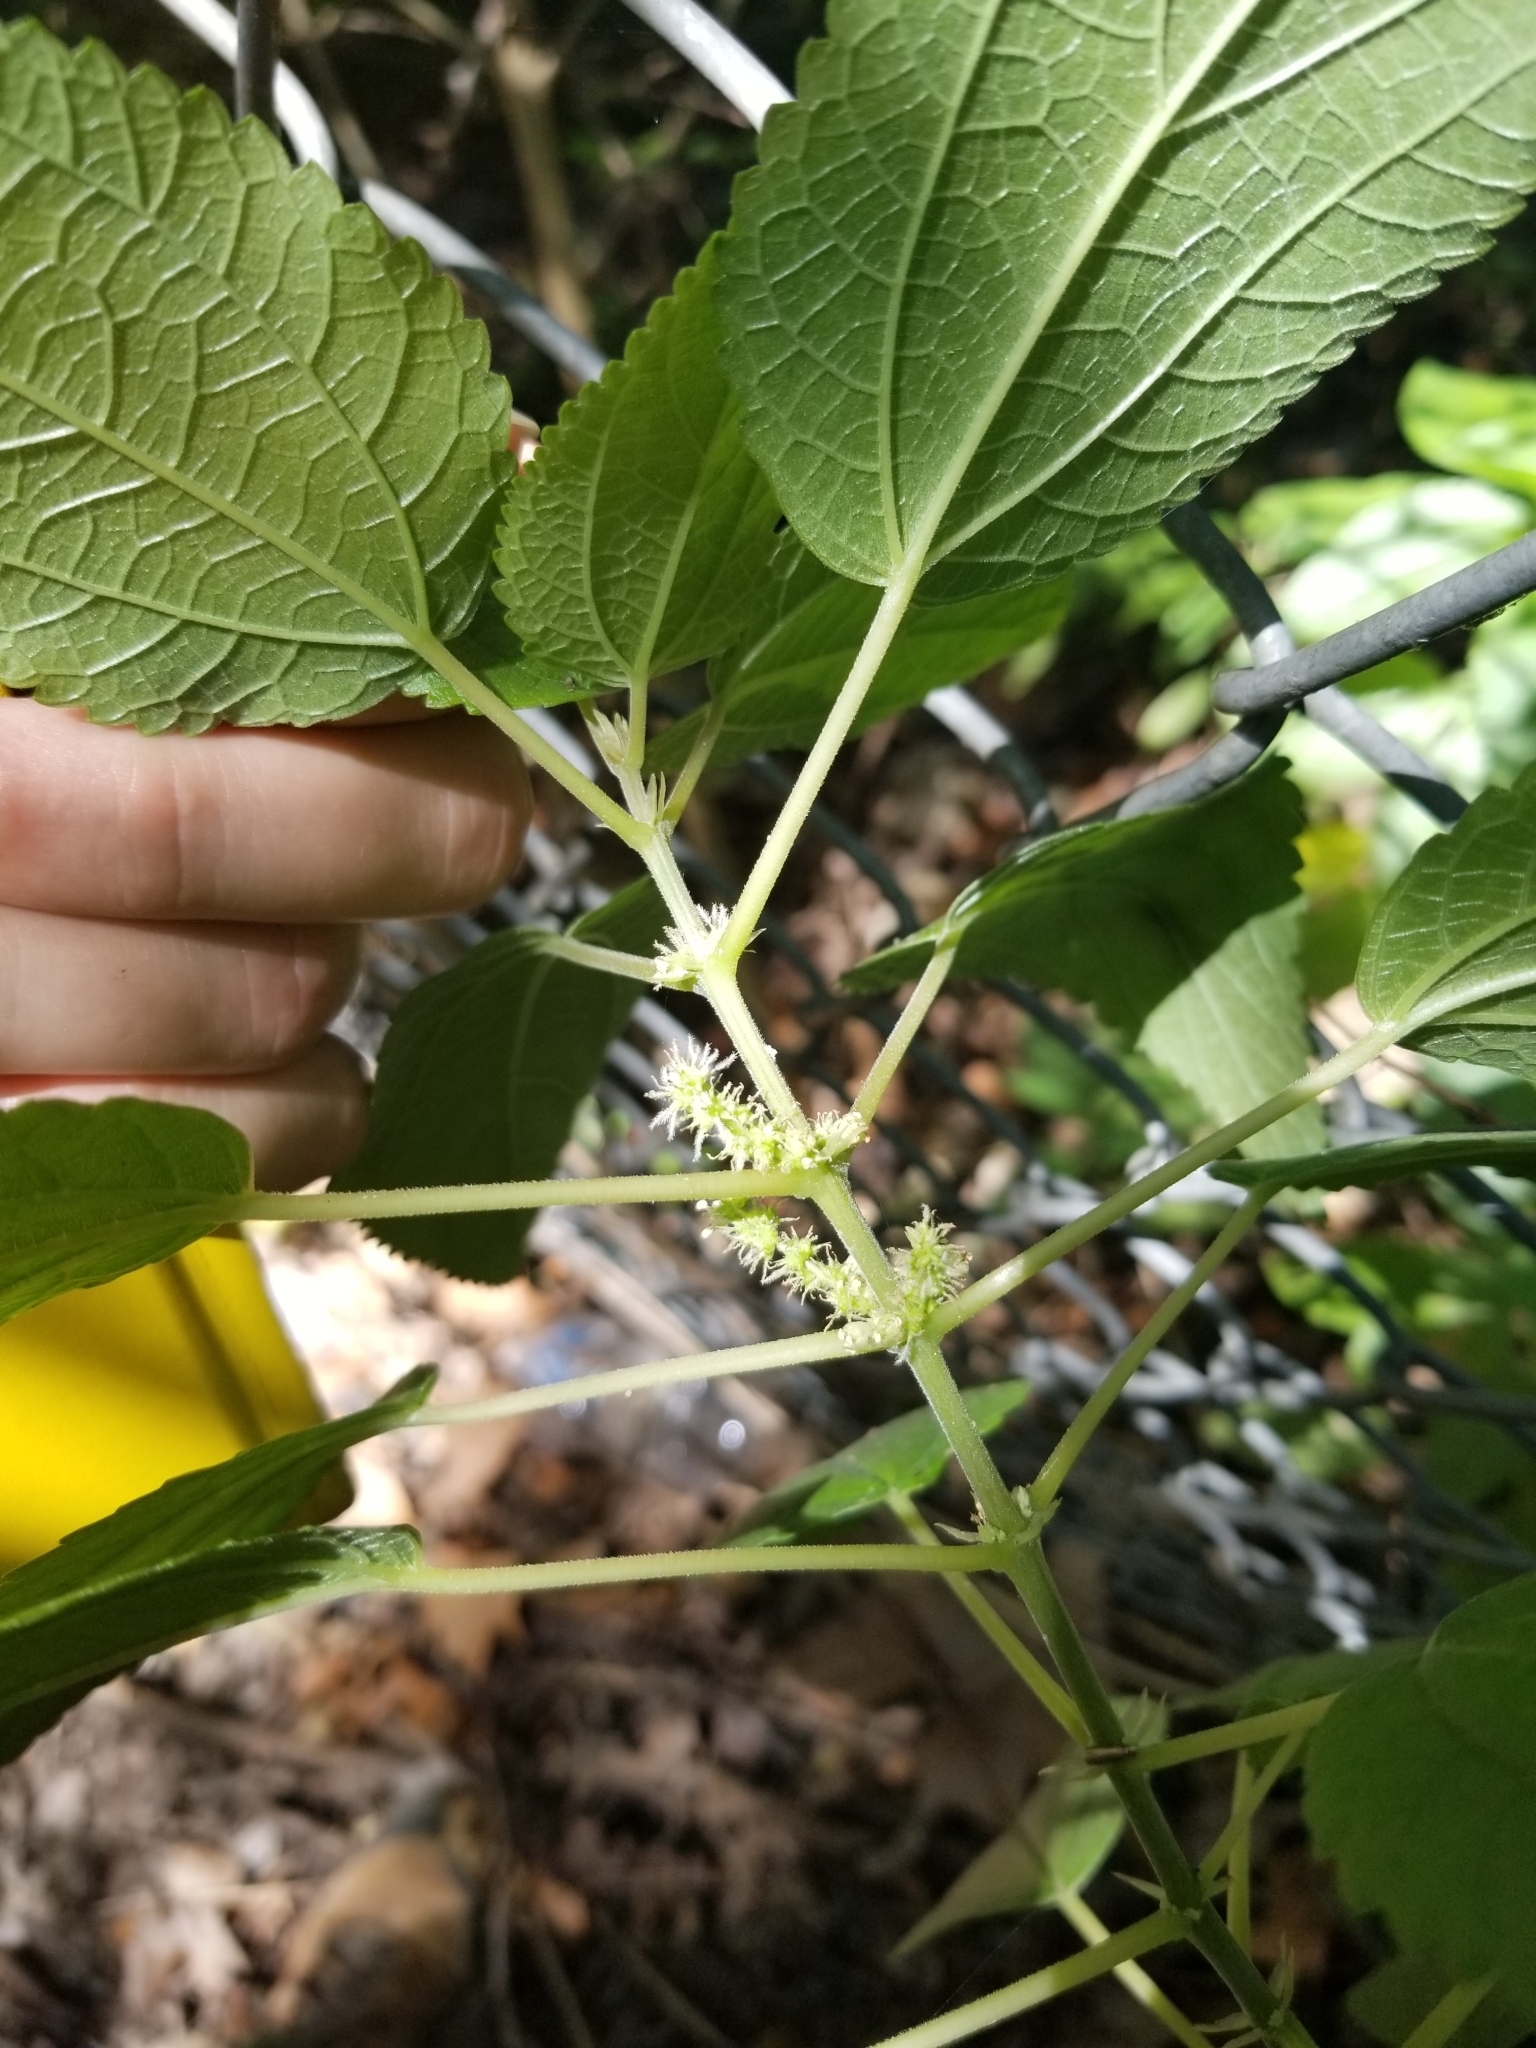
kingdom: Plantae
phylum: Tracheophyta
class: Magnoliopsida
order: Rosales
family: Urticaceae
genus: Boehmeria
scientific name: Boehmeria cylindrica
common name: Bog-hemp
